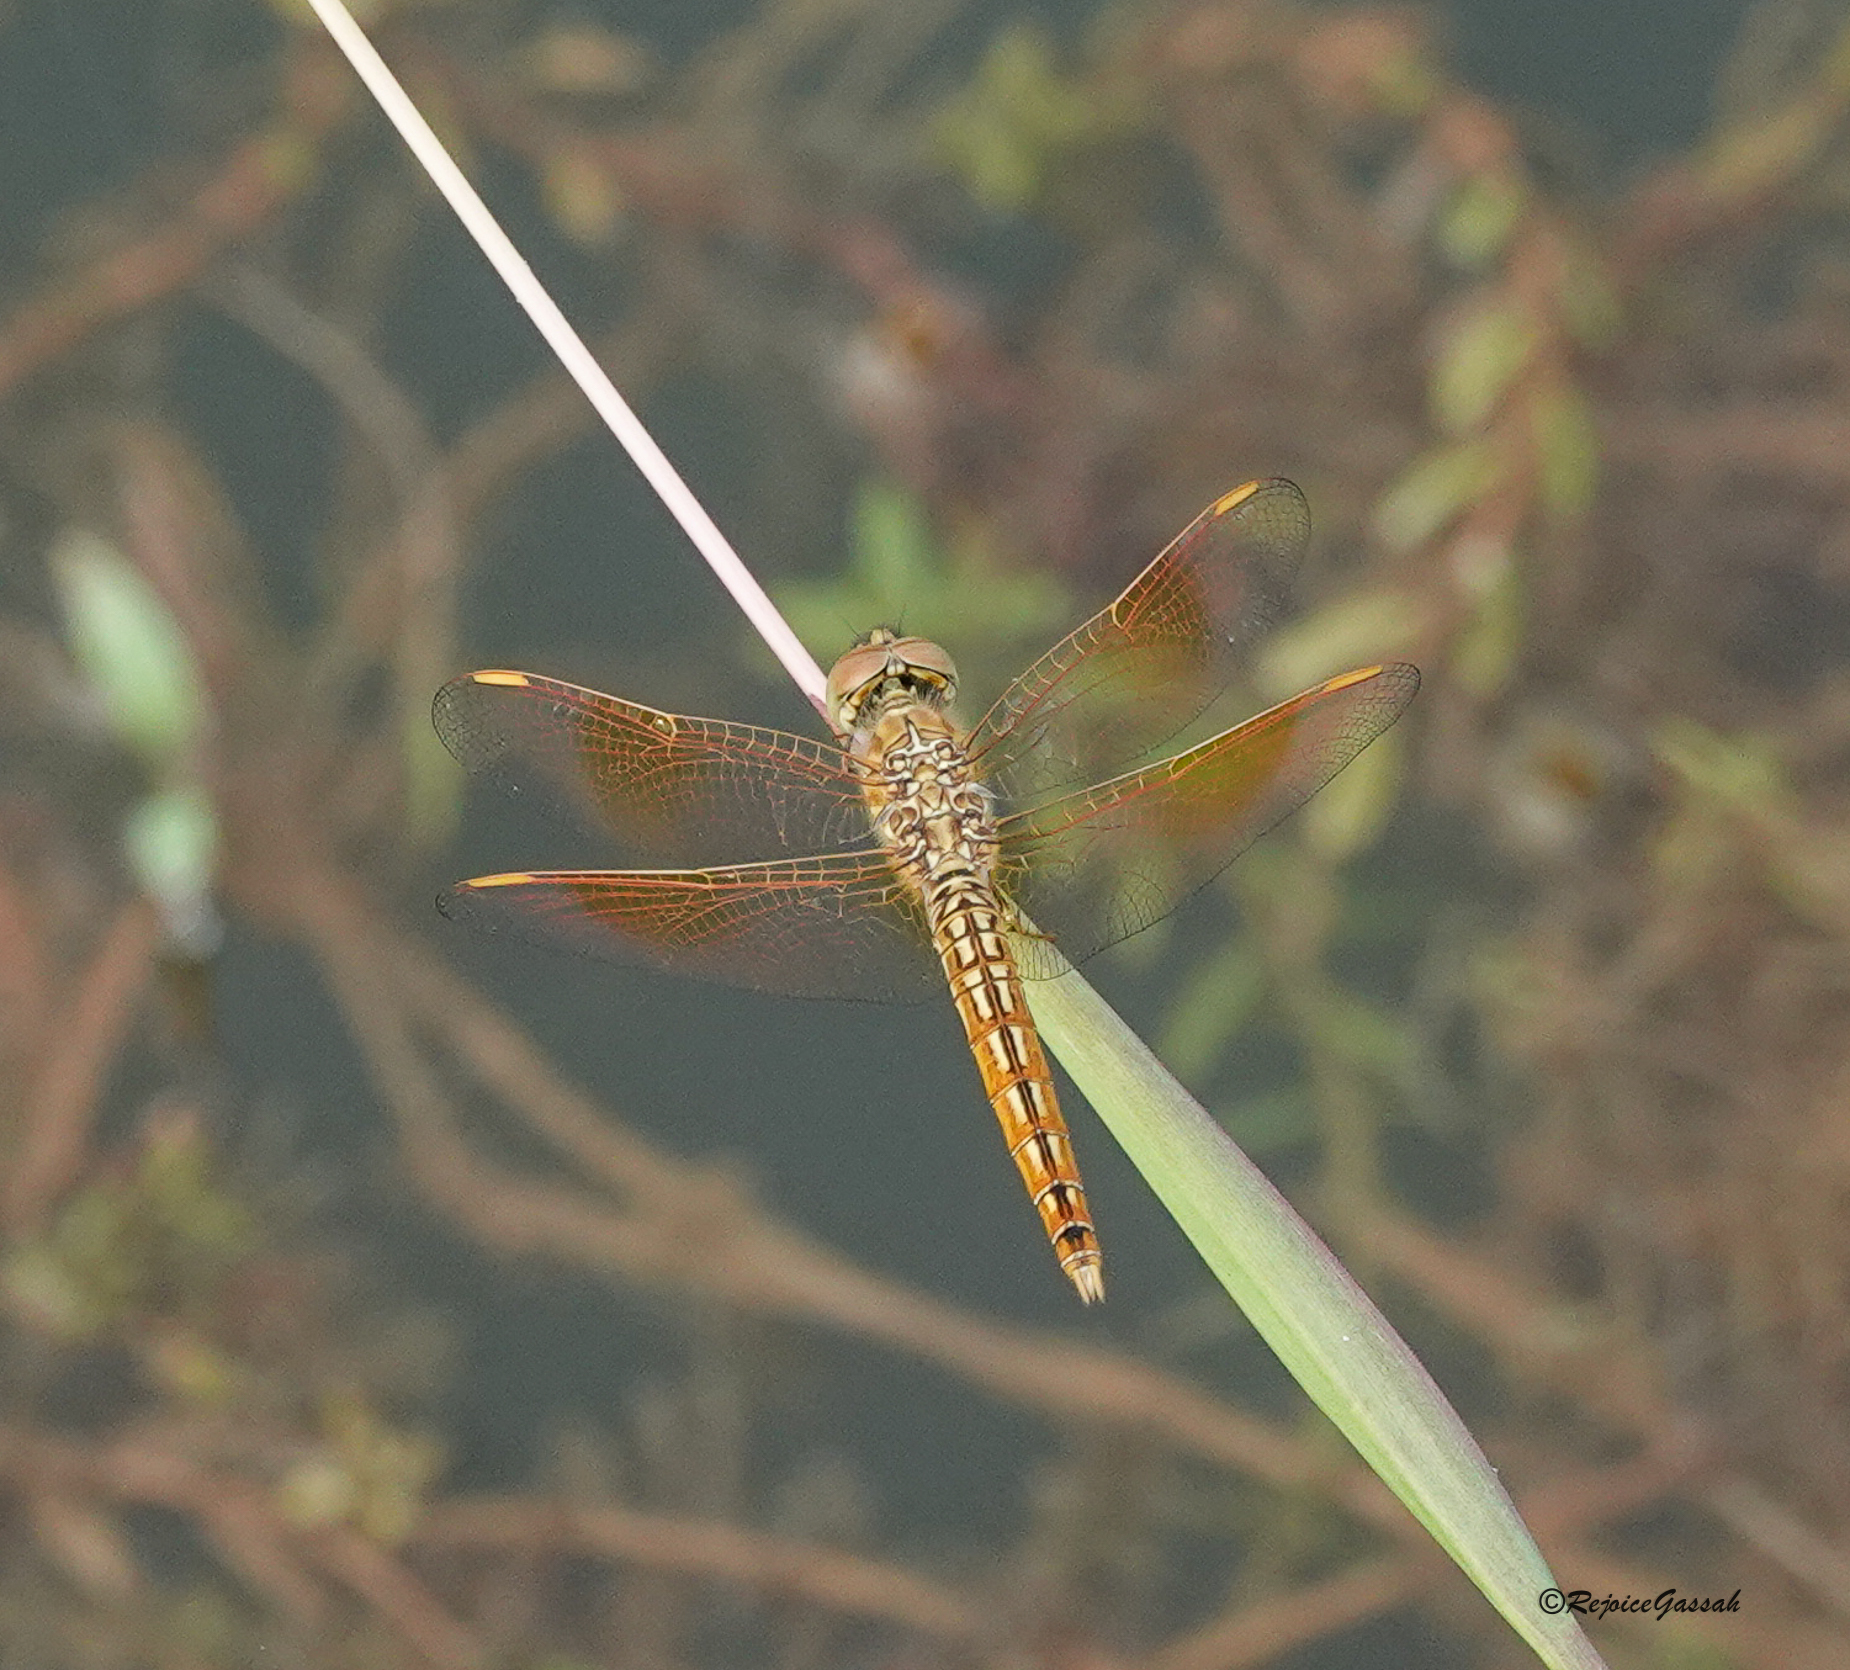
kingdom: Animalia
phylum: Arthropoda
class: Insecta
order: Odonata
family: Libellulidae
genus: Brachythemis
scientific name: Brachythemis contaminata
